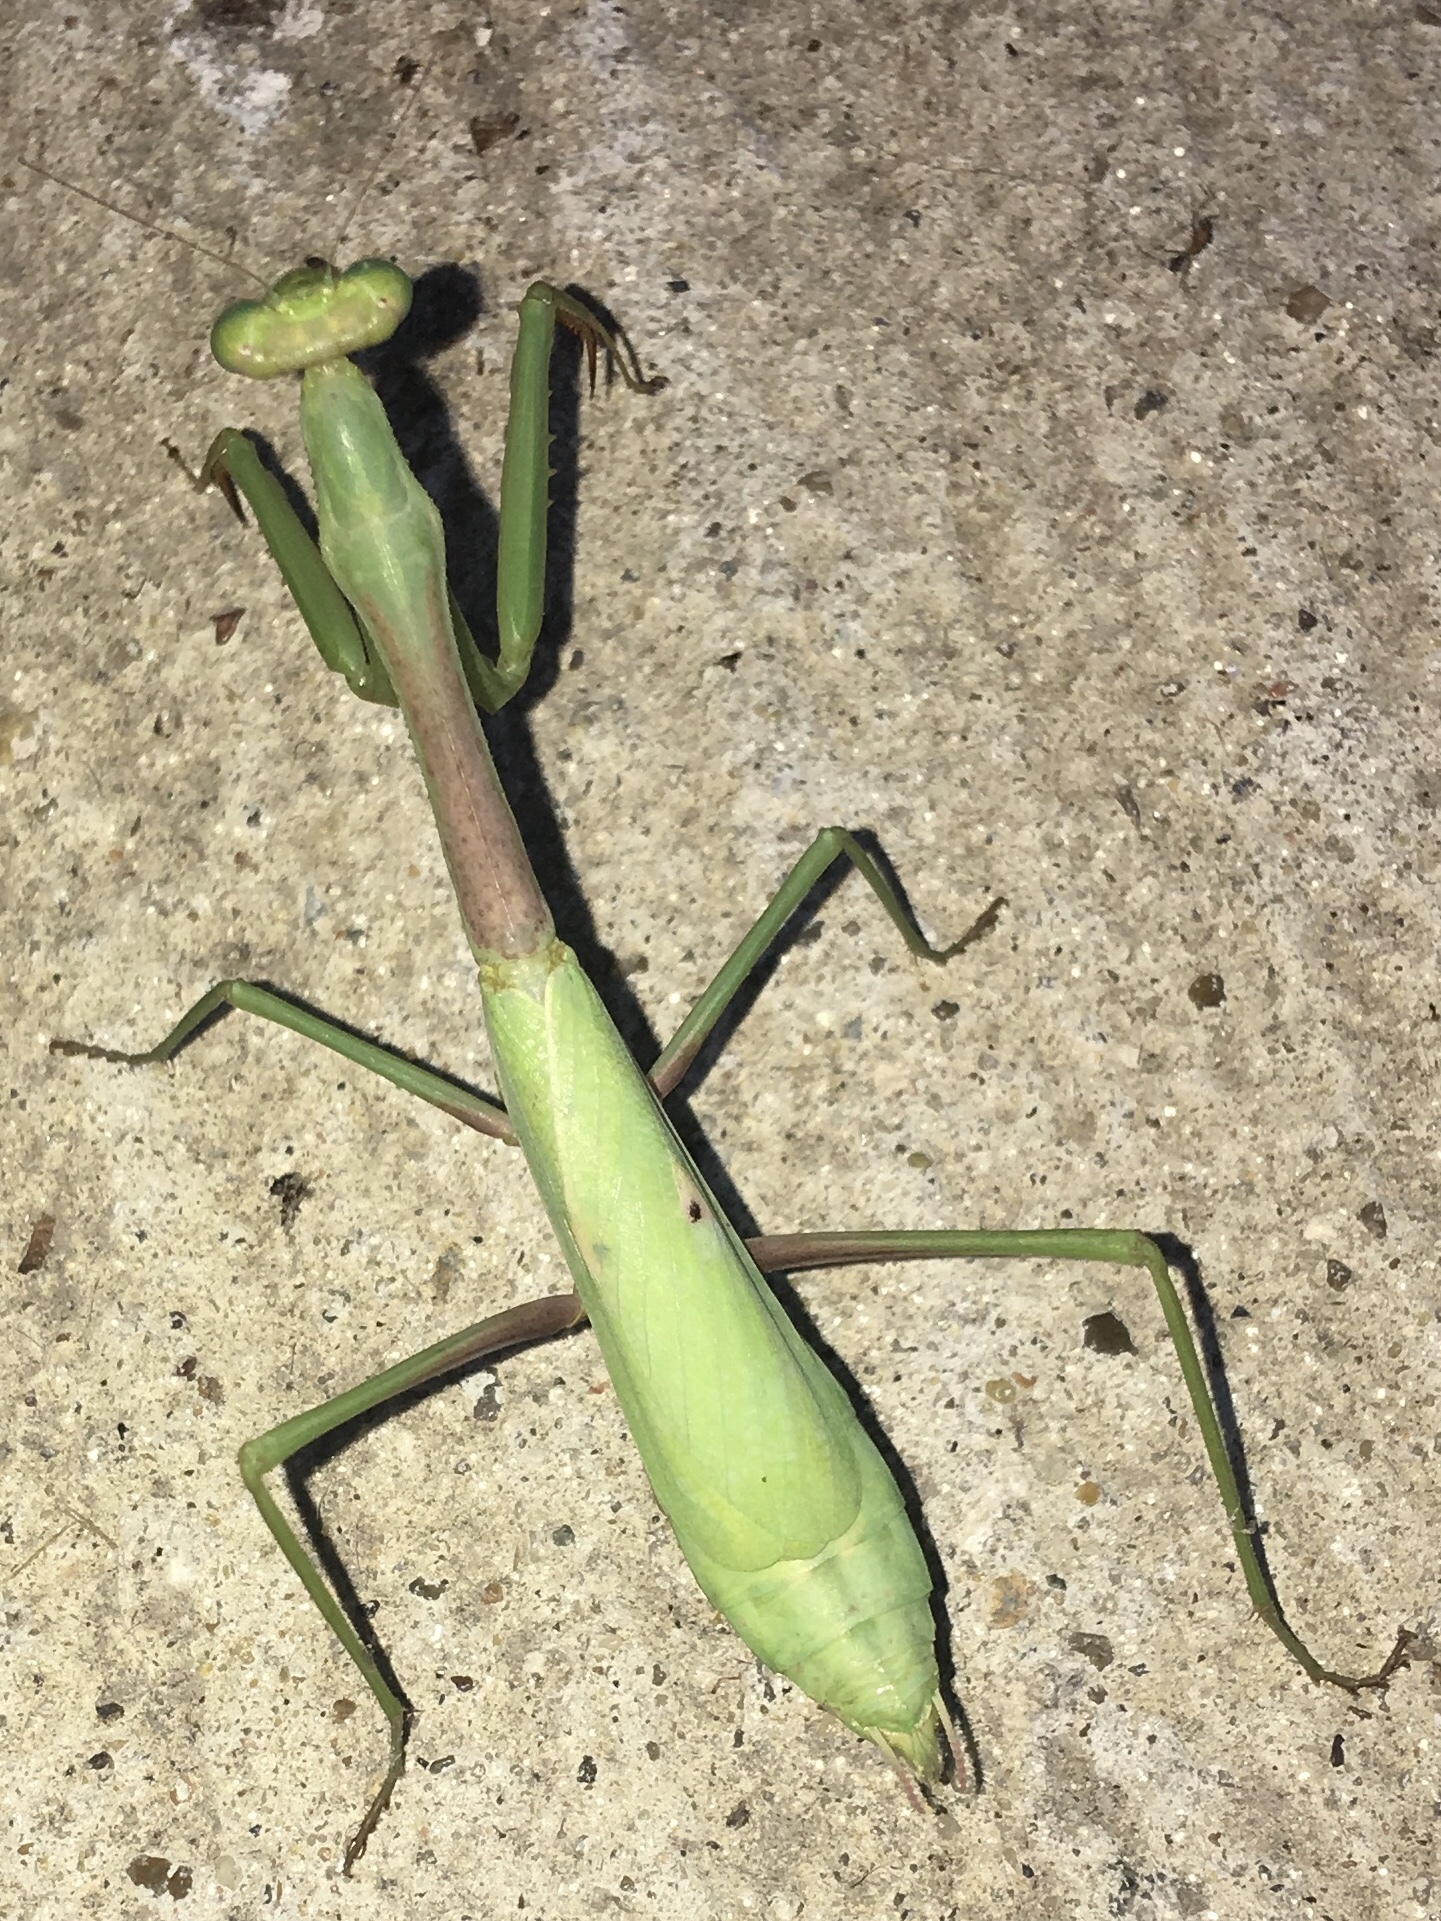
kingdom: Animalia
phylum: Arthropoda
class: Insecta
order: Mantodea
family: Mantidae
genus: Stagmomantis
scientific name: Stagmomantis carolina
